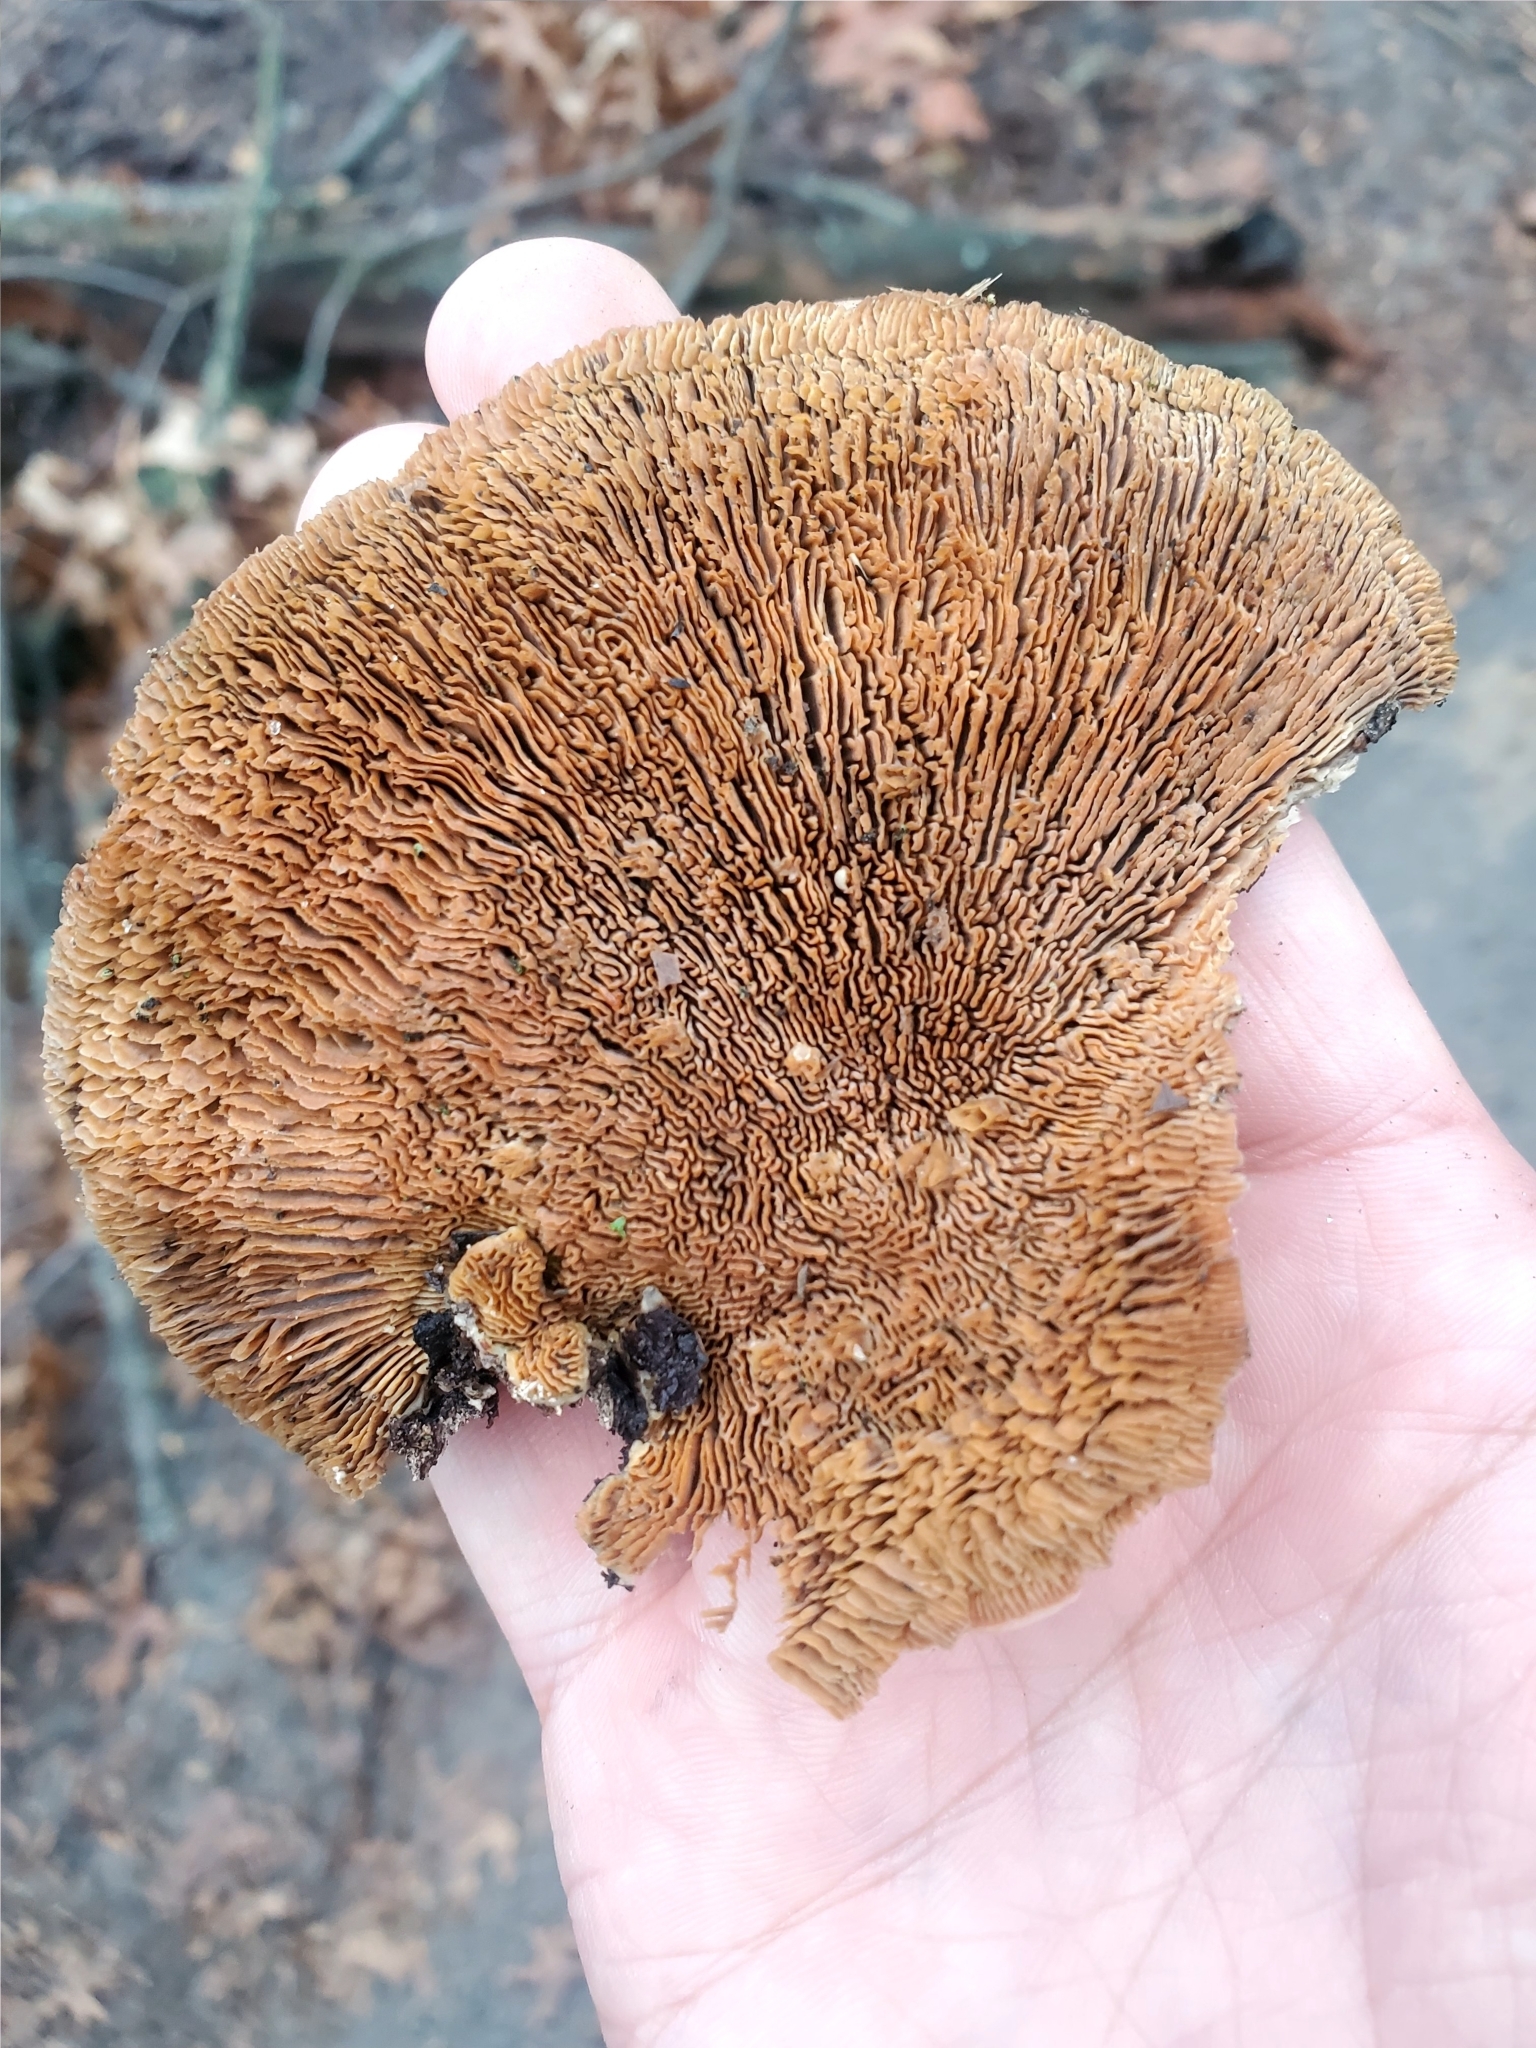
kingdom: Fungi
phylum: Basidiomycota
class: Agaricomycetes
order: Polyporales
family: Polyporaceae
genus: Daedaleopsis
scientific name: Daedaleopsis confragosa
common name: Blushing bracket
